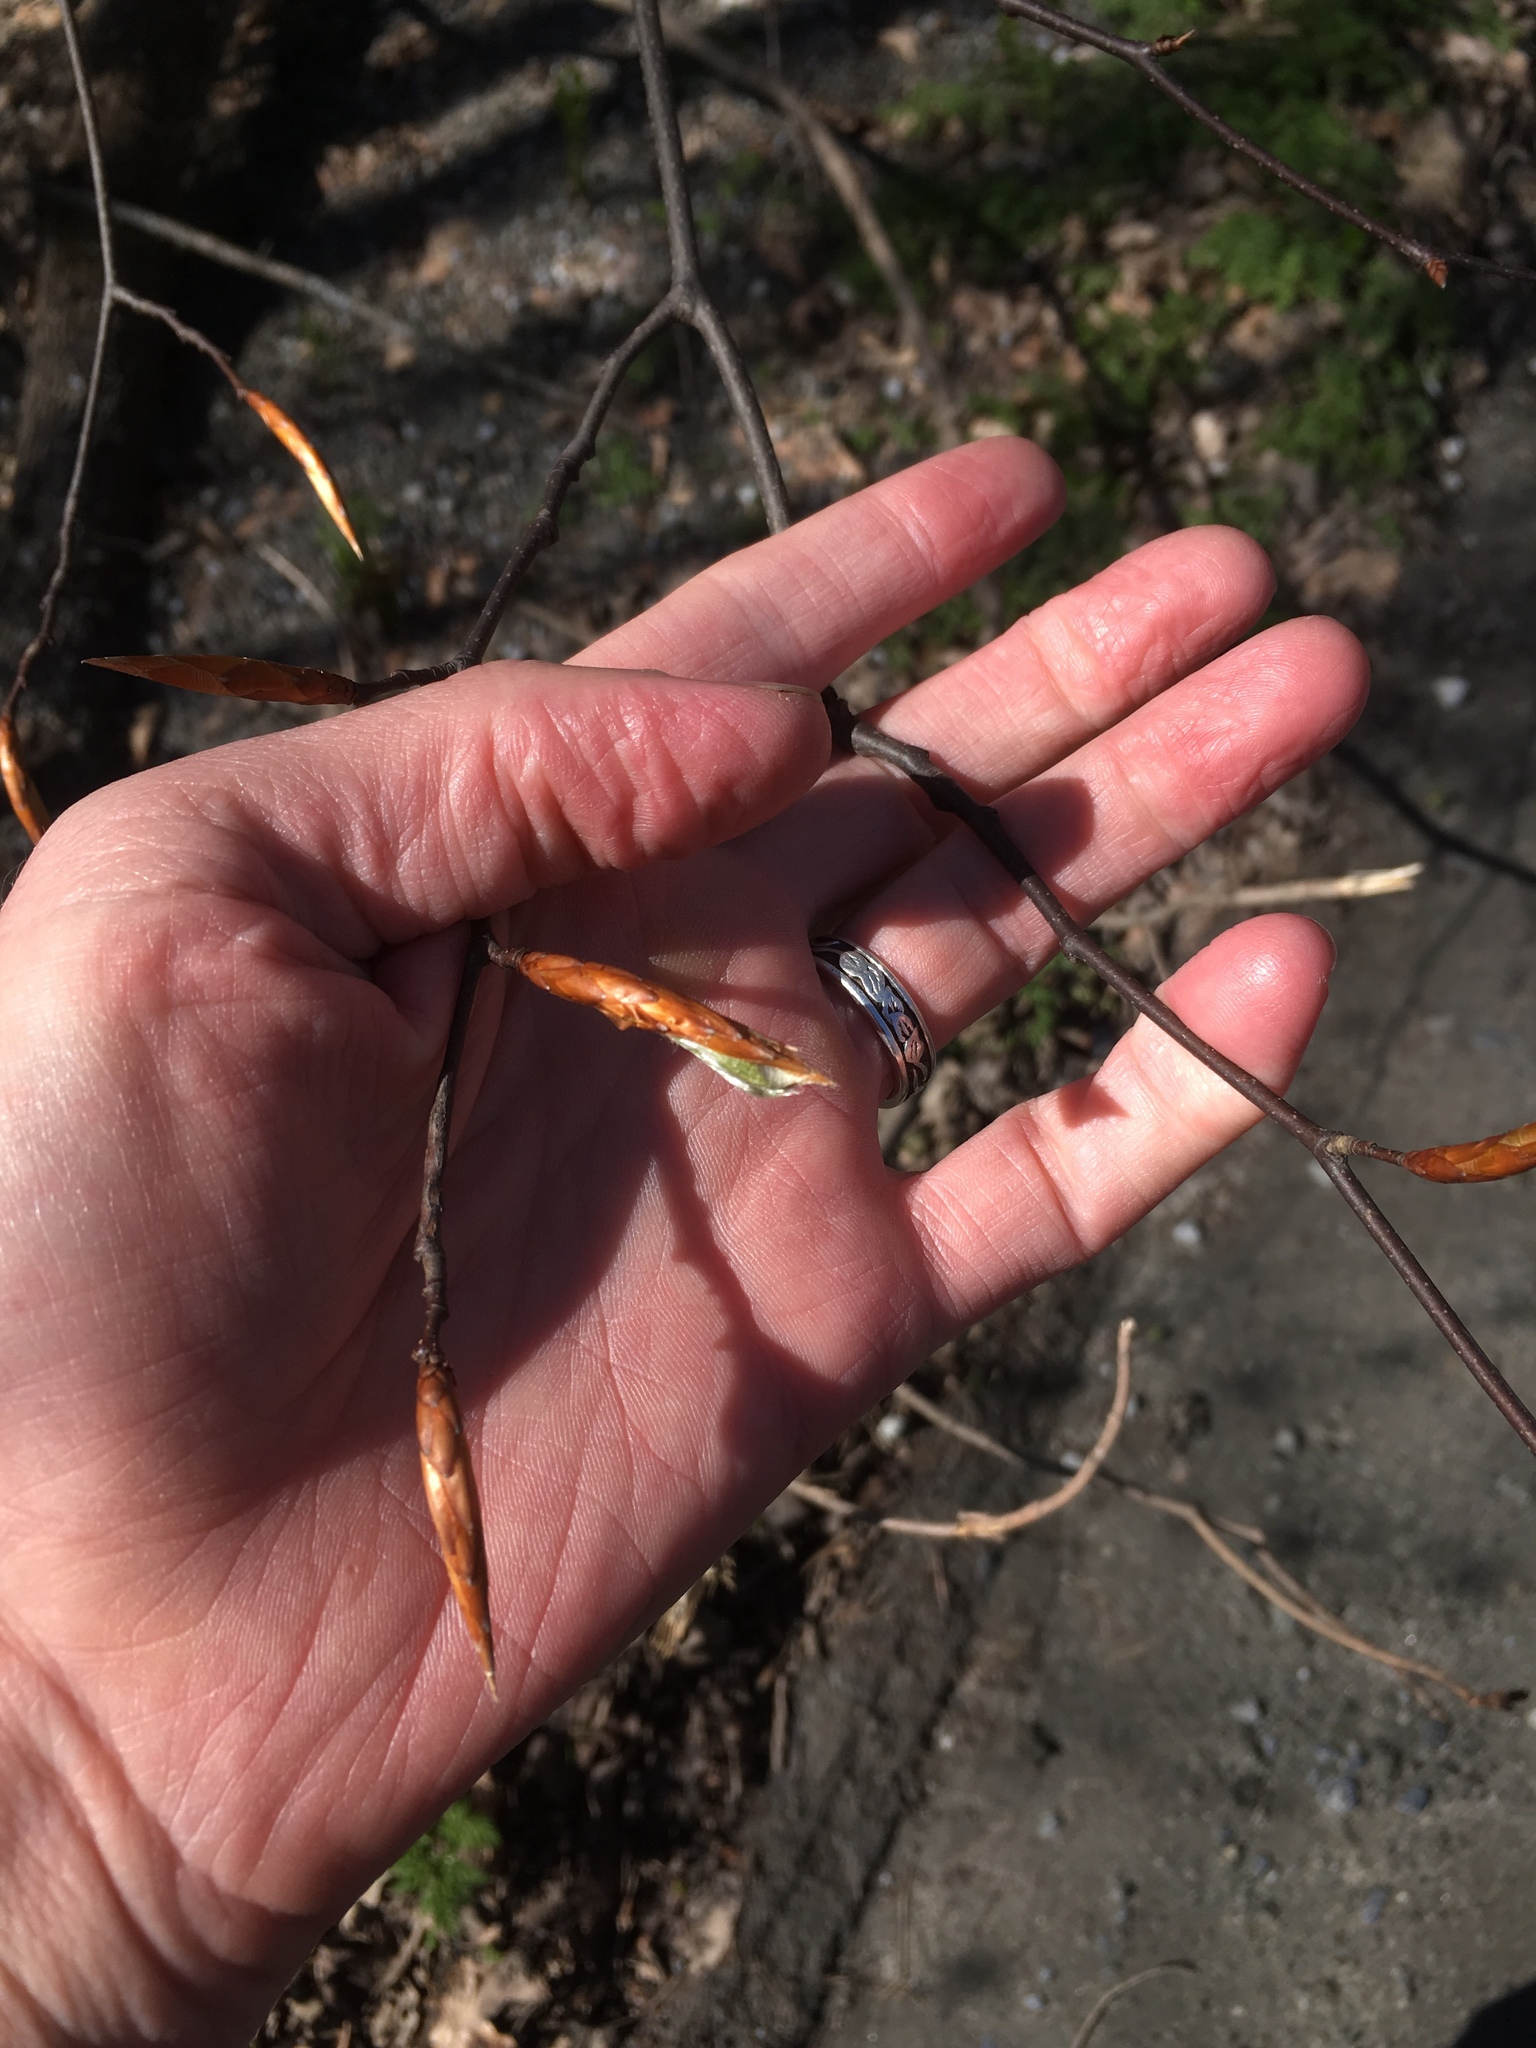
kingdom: Plantae
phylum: Tracheophyta
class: Magnoliopsida
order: Fagales
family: Fagaceae
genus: Fagus
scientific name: Fagus grandifolia
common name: American beech
